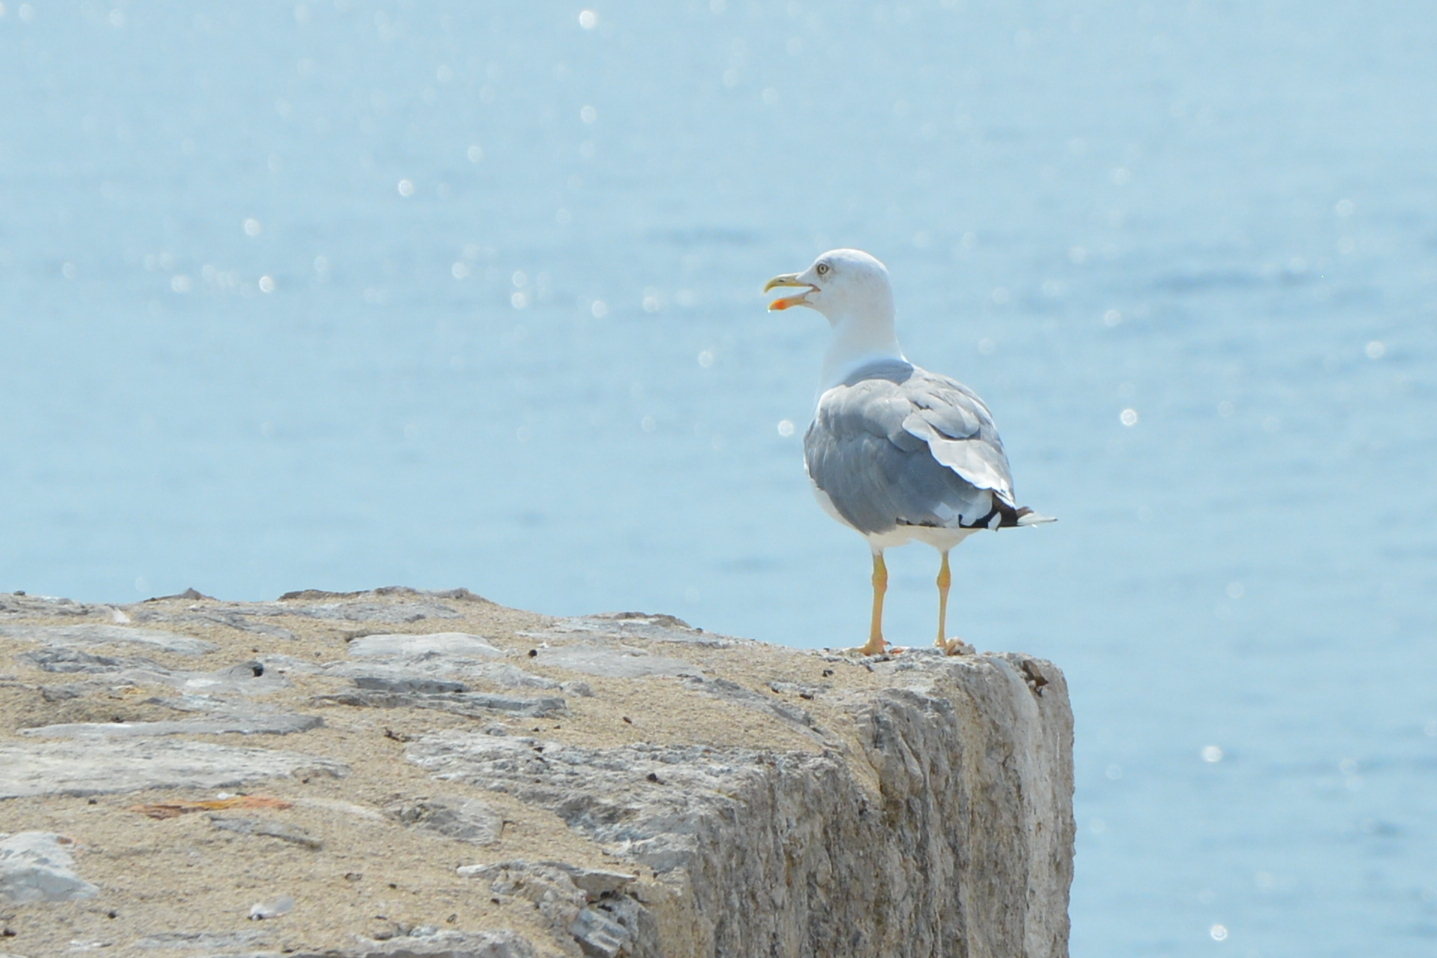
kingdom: Animalia
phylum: Chordata
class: Aves
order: Charadriiformes
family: Laridae
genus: Larus
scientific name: Larus michahellis
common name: Yellow-legged gull
